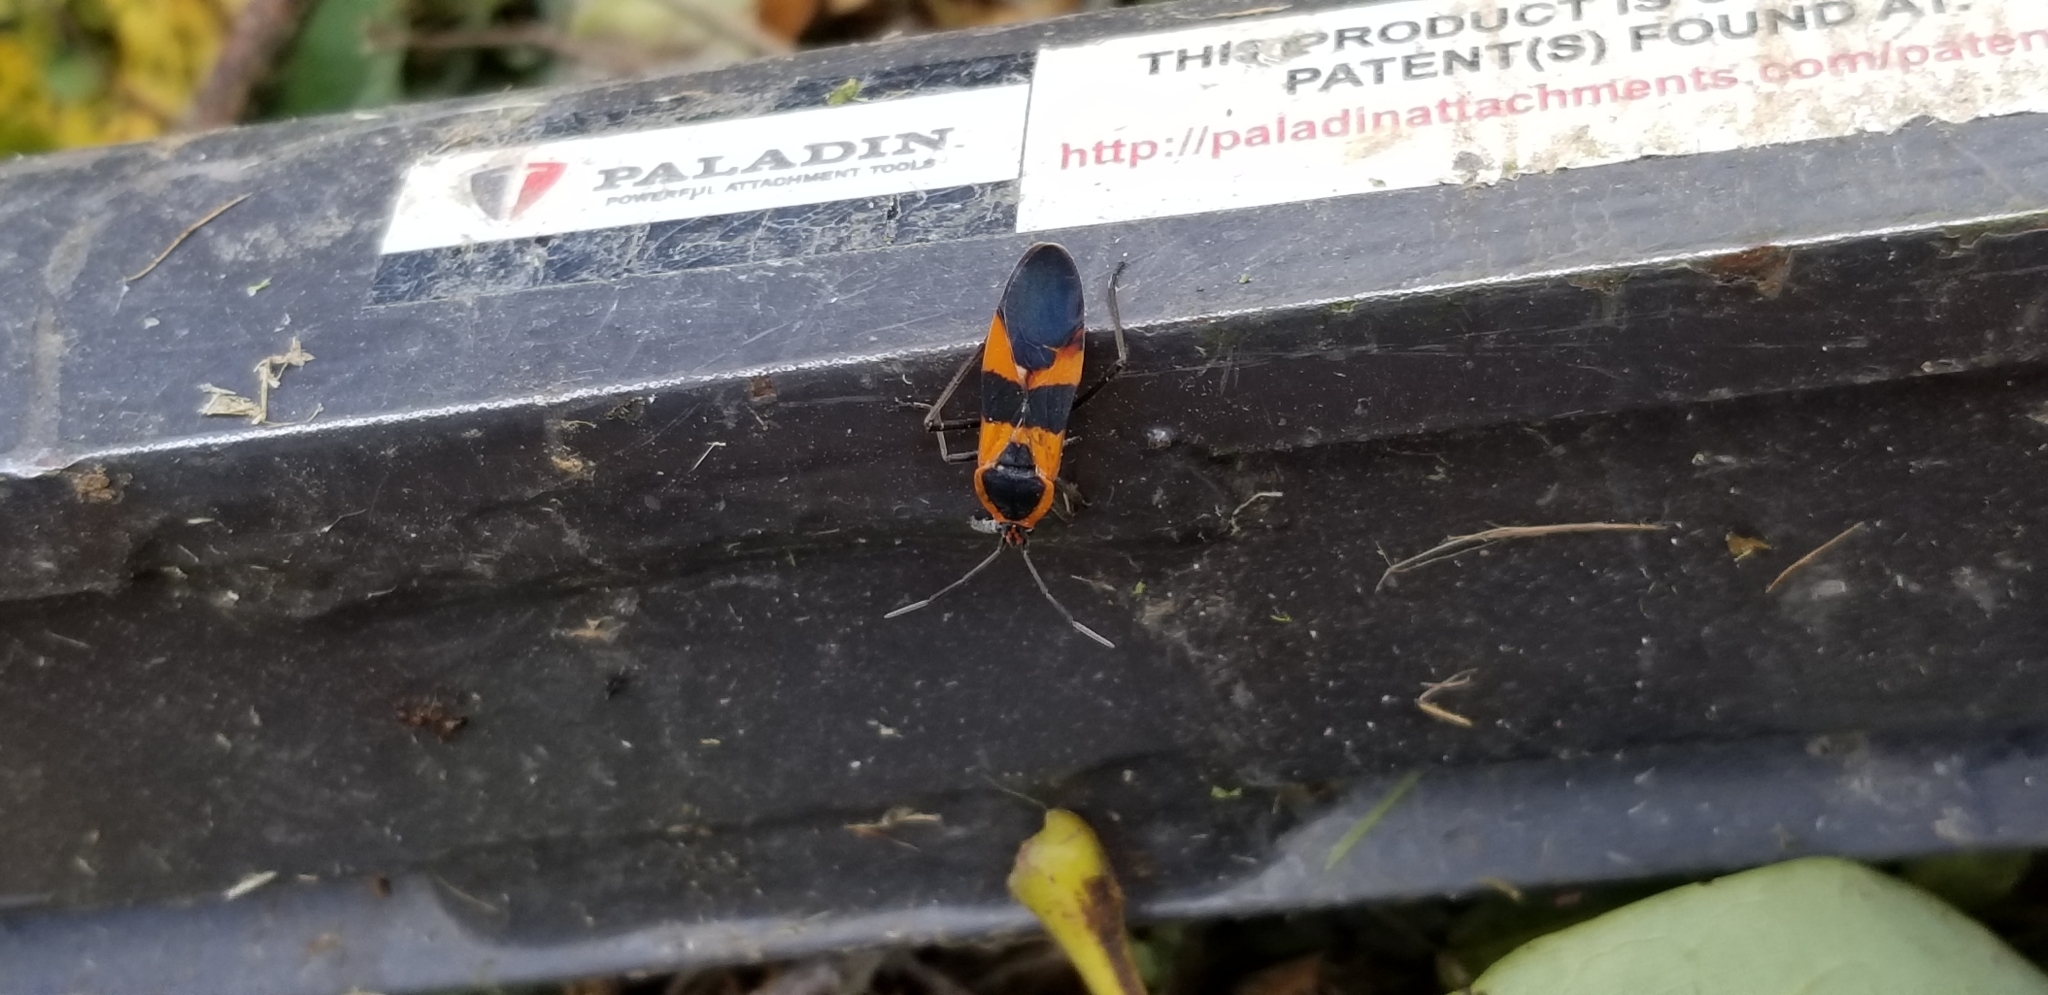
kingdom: Animalia
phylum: Arthropoda
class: Insecta
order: Hemiptera
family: Lygaeidae
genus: Oncopeltus
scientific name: Oncopeltus fasciatus
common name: Large milkweed bug
